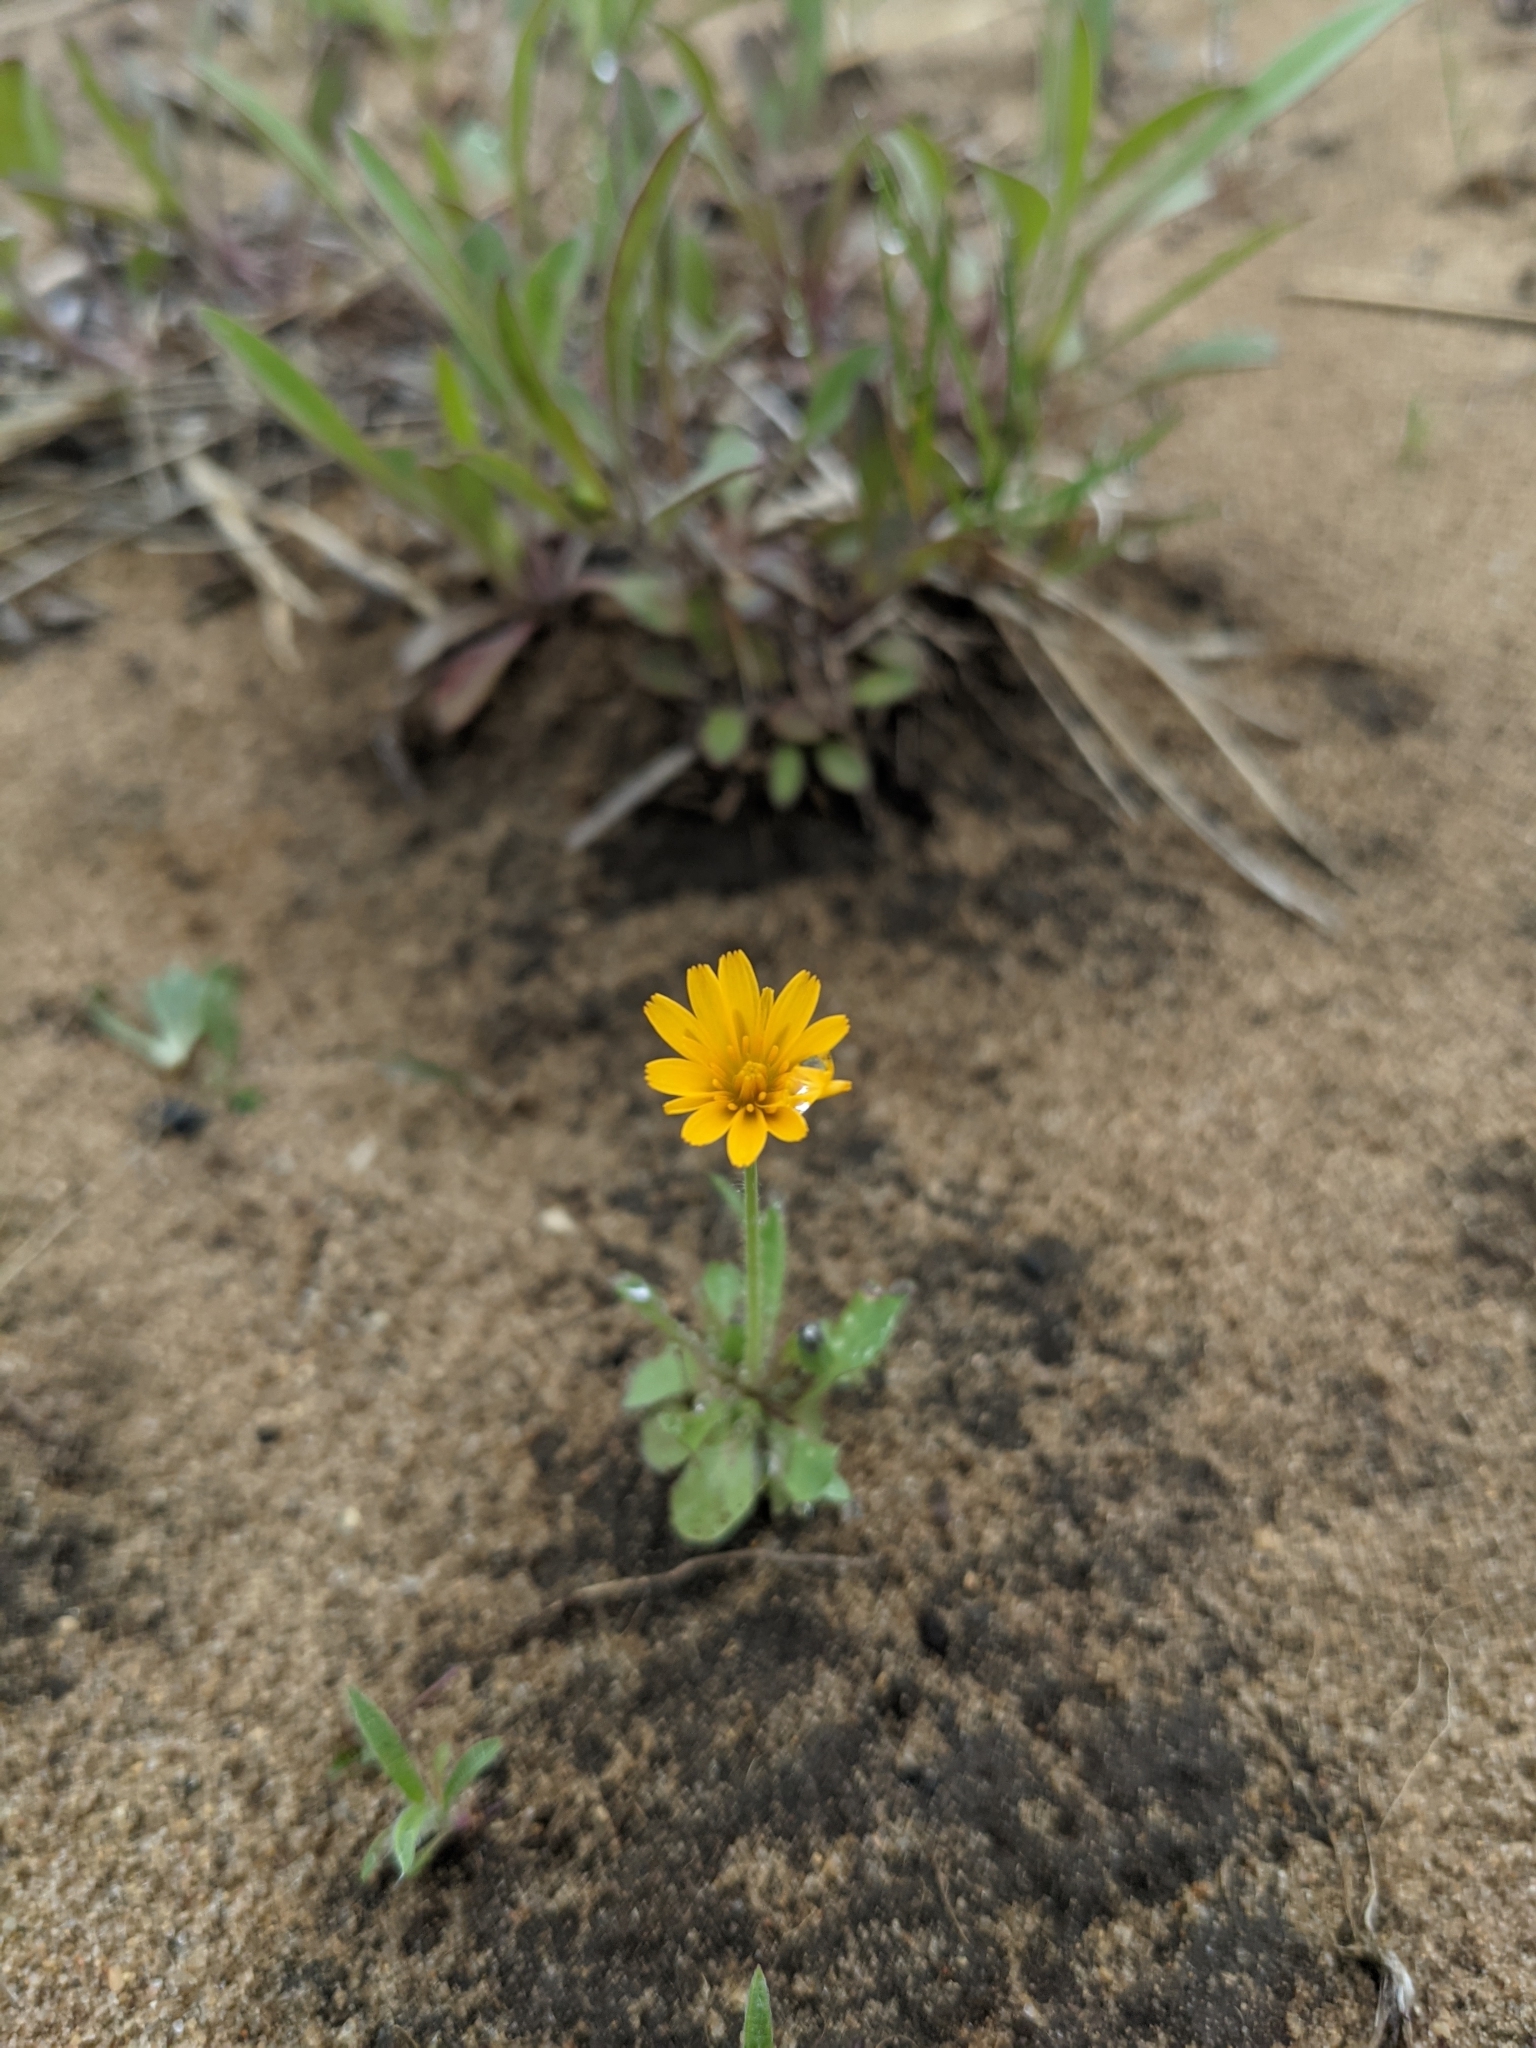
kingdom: Plantae
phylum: Tracheophyta
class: Magnoliopsida
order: Asterales
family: Asteraceae
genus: Krigia
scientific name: Krigia virginica
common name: Virginia dwarf-dandelion
